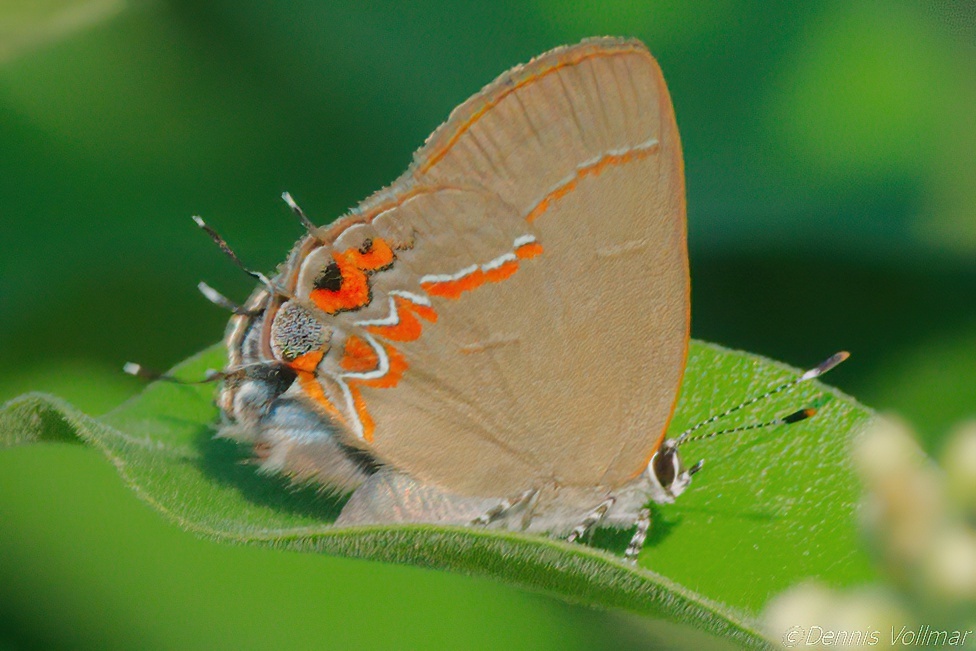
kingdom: Animalia
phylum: Arthropoda
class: Insecta
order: Lepidoptera
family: Lycaenidae
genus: Calycopis
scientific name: Calycopis isobeon
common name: Dusky-blue groundstreak
